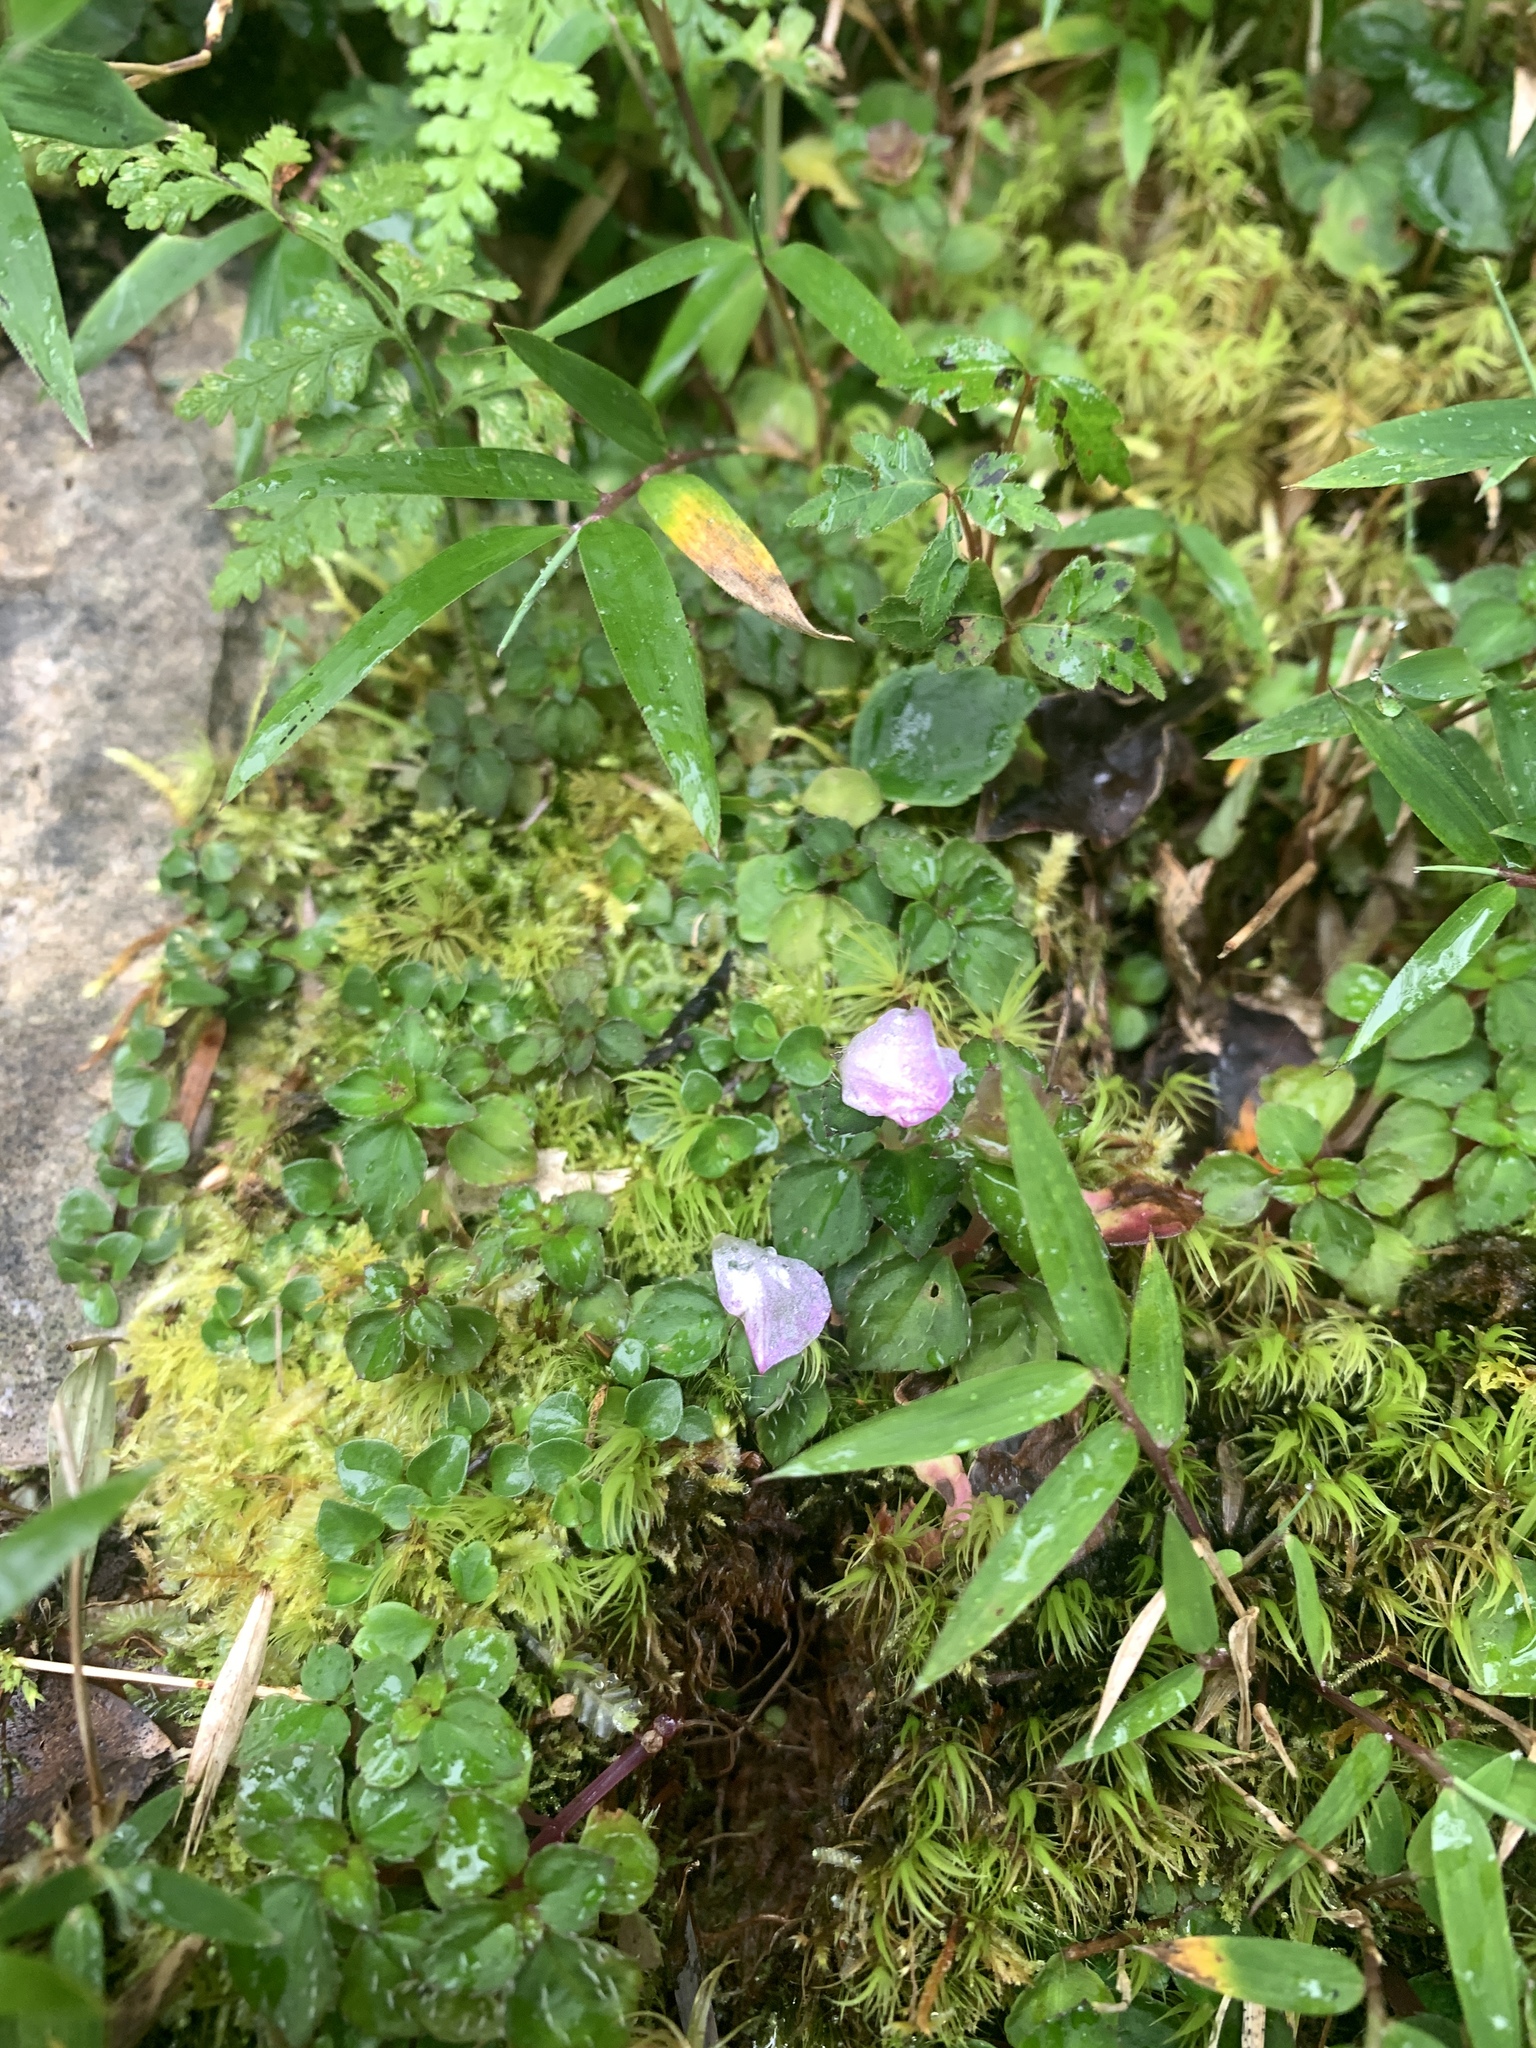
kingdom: Plantae
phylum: Tracheophyta
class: Magnoliopsida
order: Myrtales
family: Melastomataceae
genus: Sarcopyramis
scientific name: Sarcopyramis bodinieri
